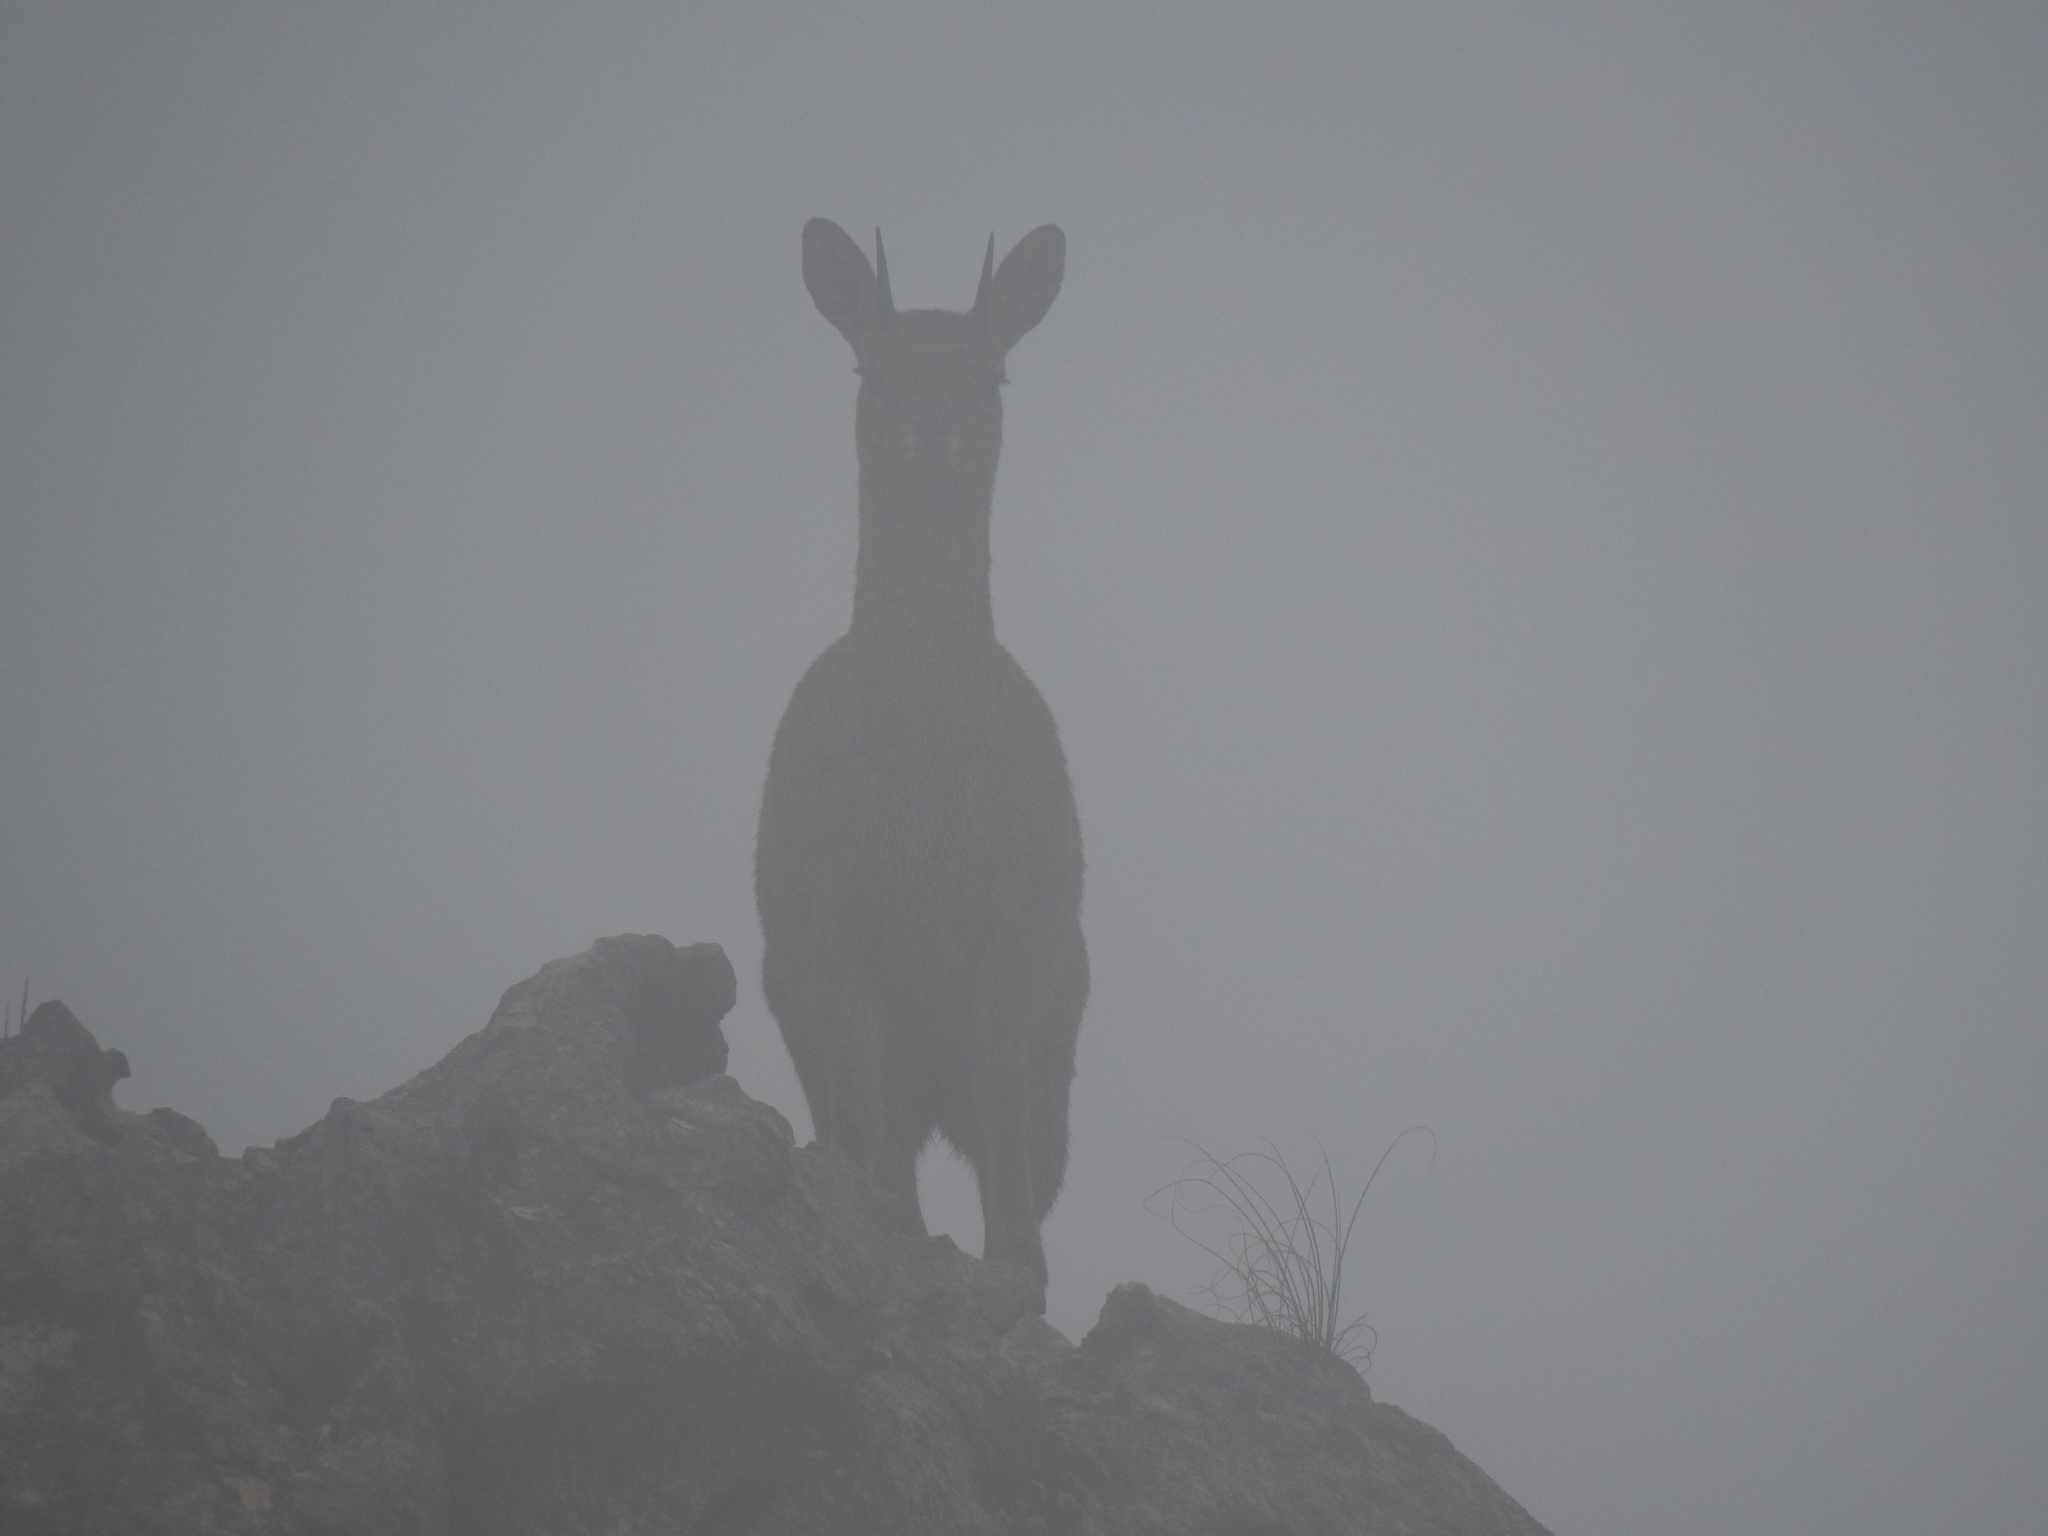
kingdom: Animalia
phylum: Chordata
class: Mammalia
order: Artiodactyla
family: Bovidae
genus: Oreotragus
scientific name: Oreotragus oreotragus
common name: Klipspringer
